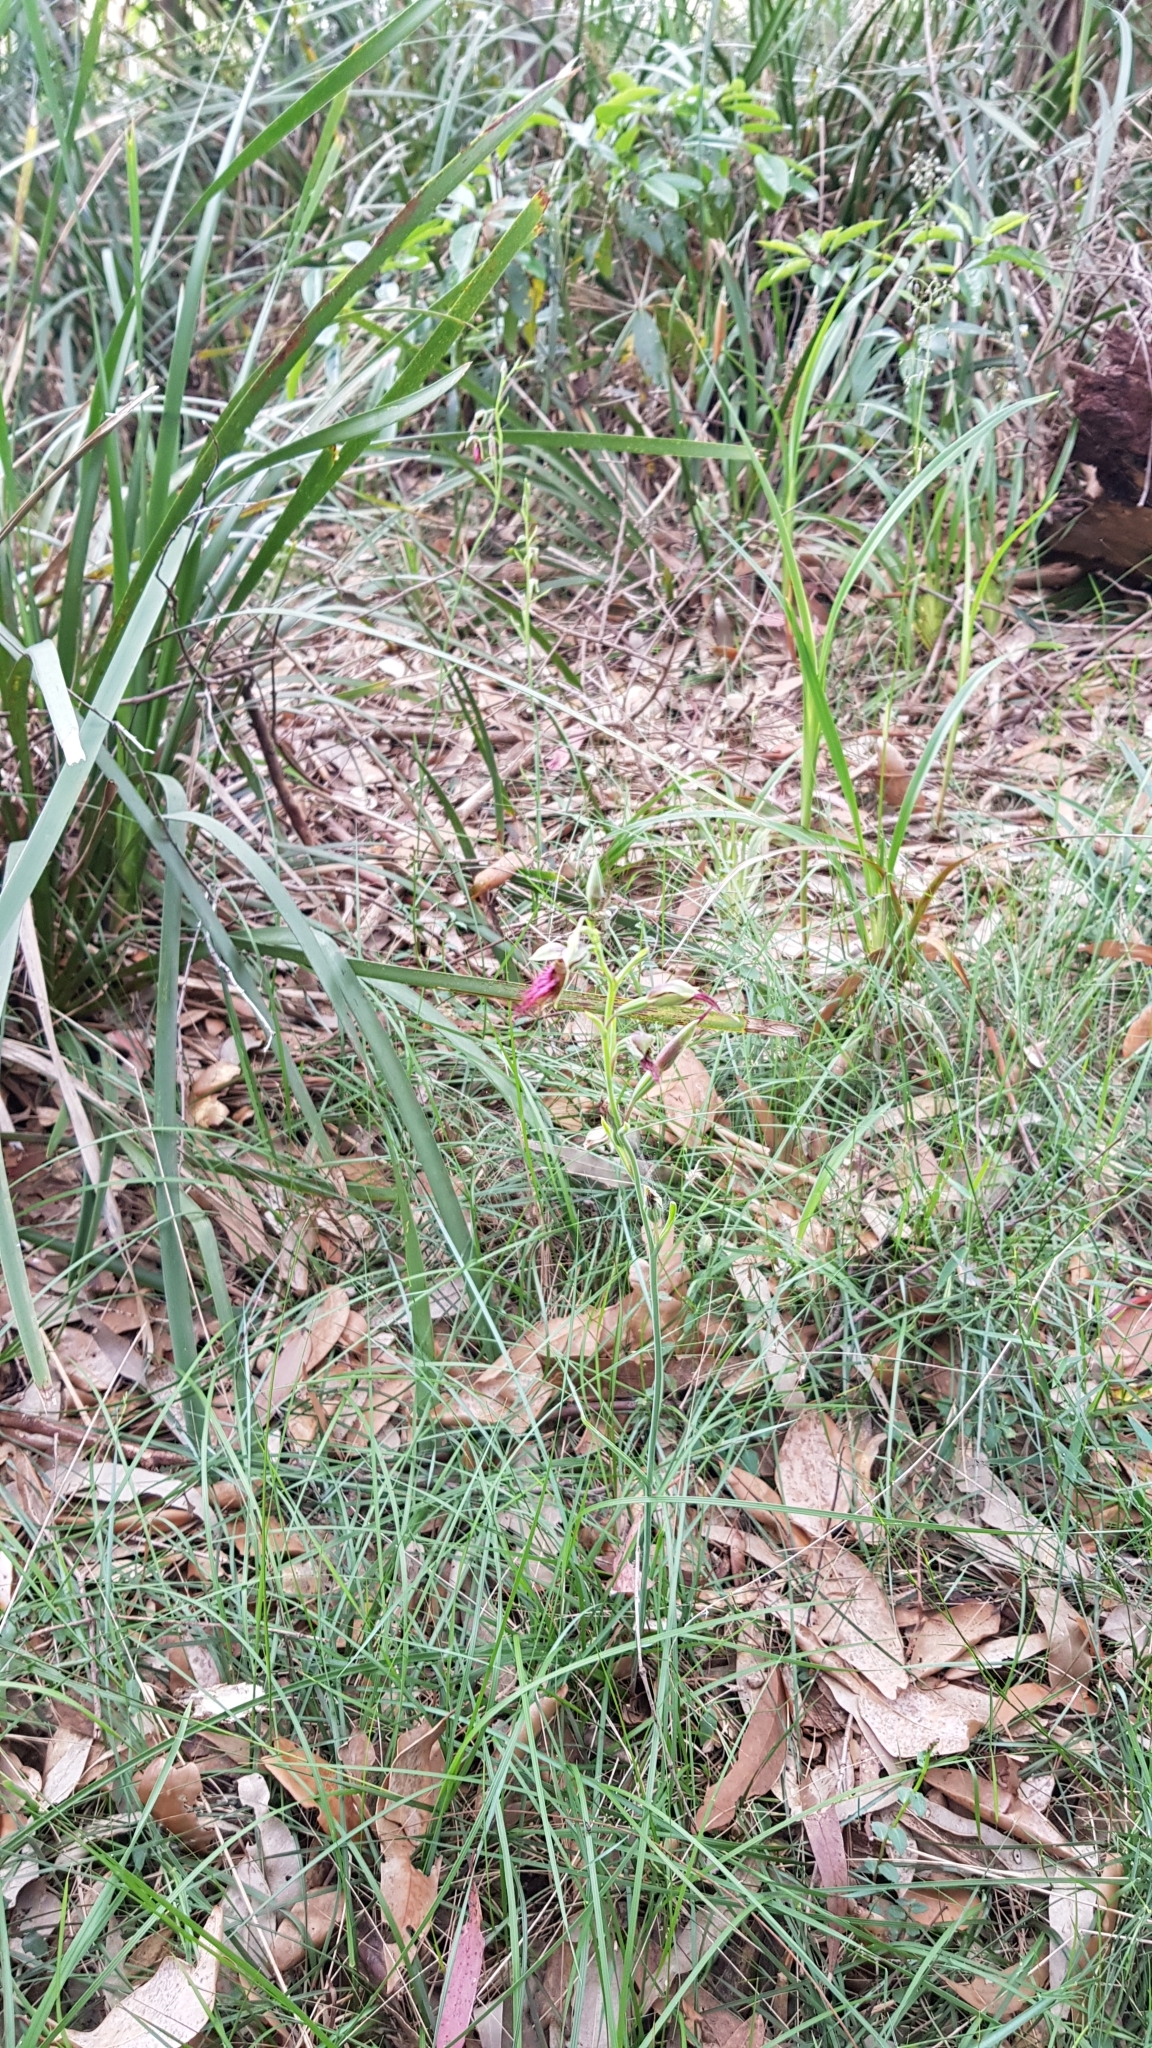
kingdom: Plantae
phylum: Tracheophyta
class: Liliopsida
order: Asparagales
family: Orchidaceae
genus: Calochilus
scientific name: Calochilus paludosus
